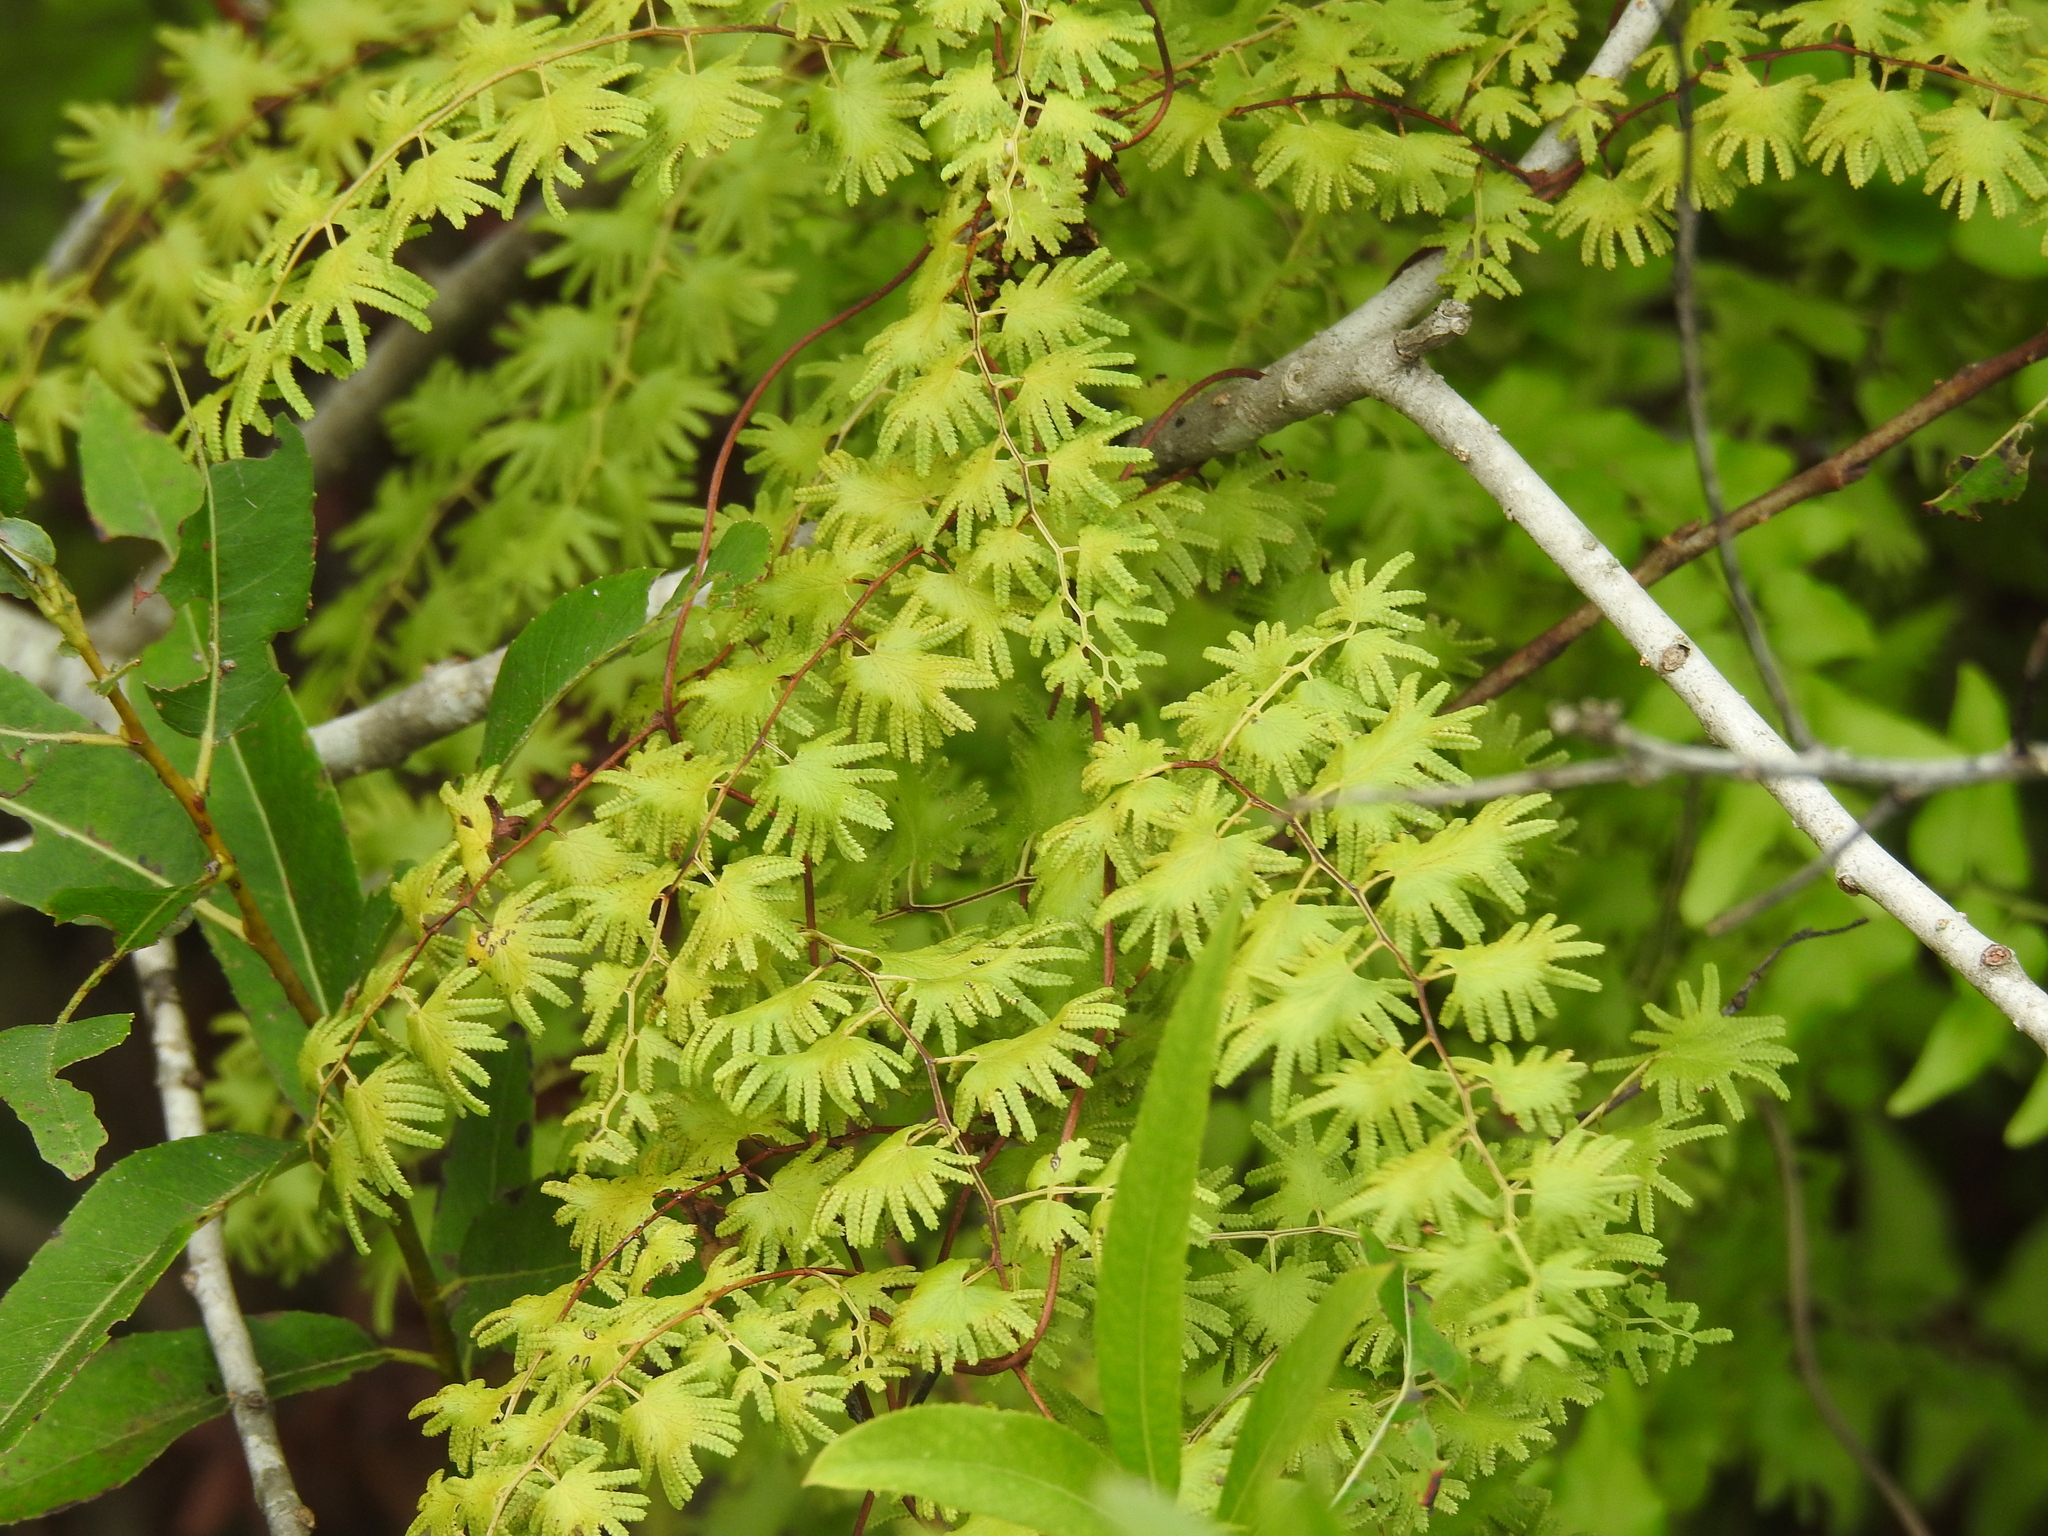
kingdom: Plantae
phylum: Tracheophyta
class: Polypodiopsida
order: Schizaeales
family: Lygodiaceae
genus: Lygodium
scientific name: Lygodium microphyllum
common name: Small-leaf climbing fern
